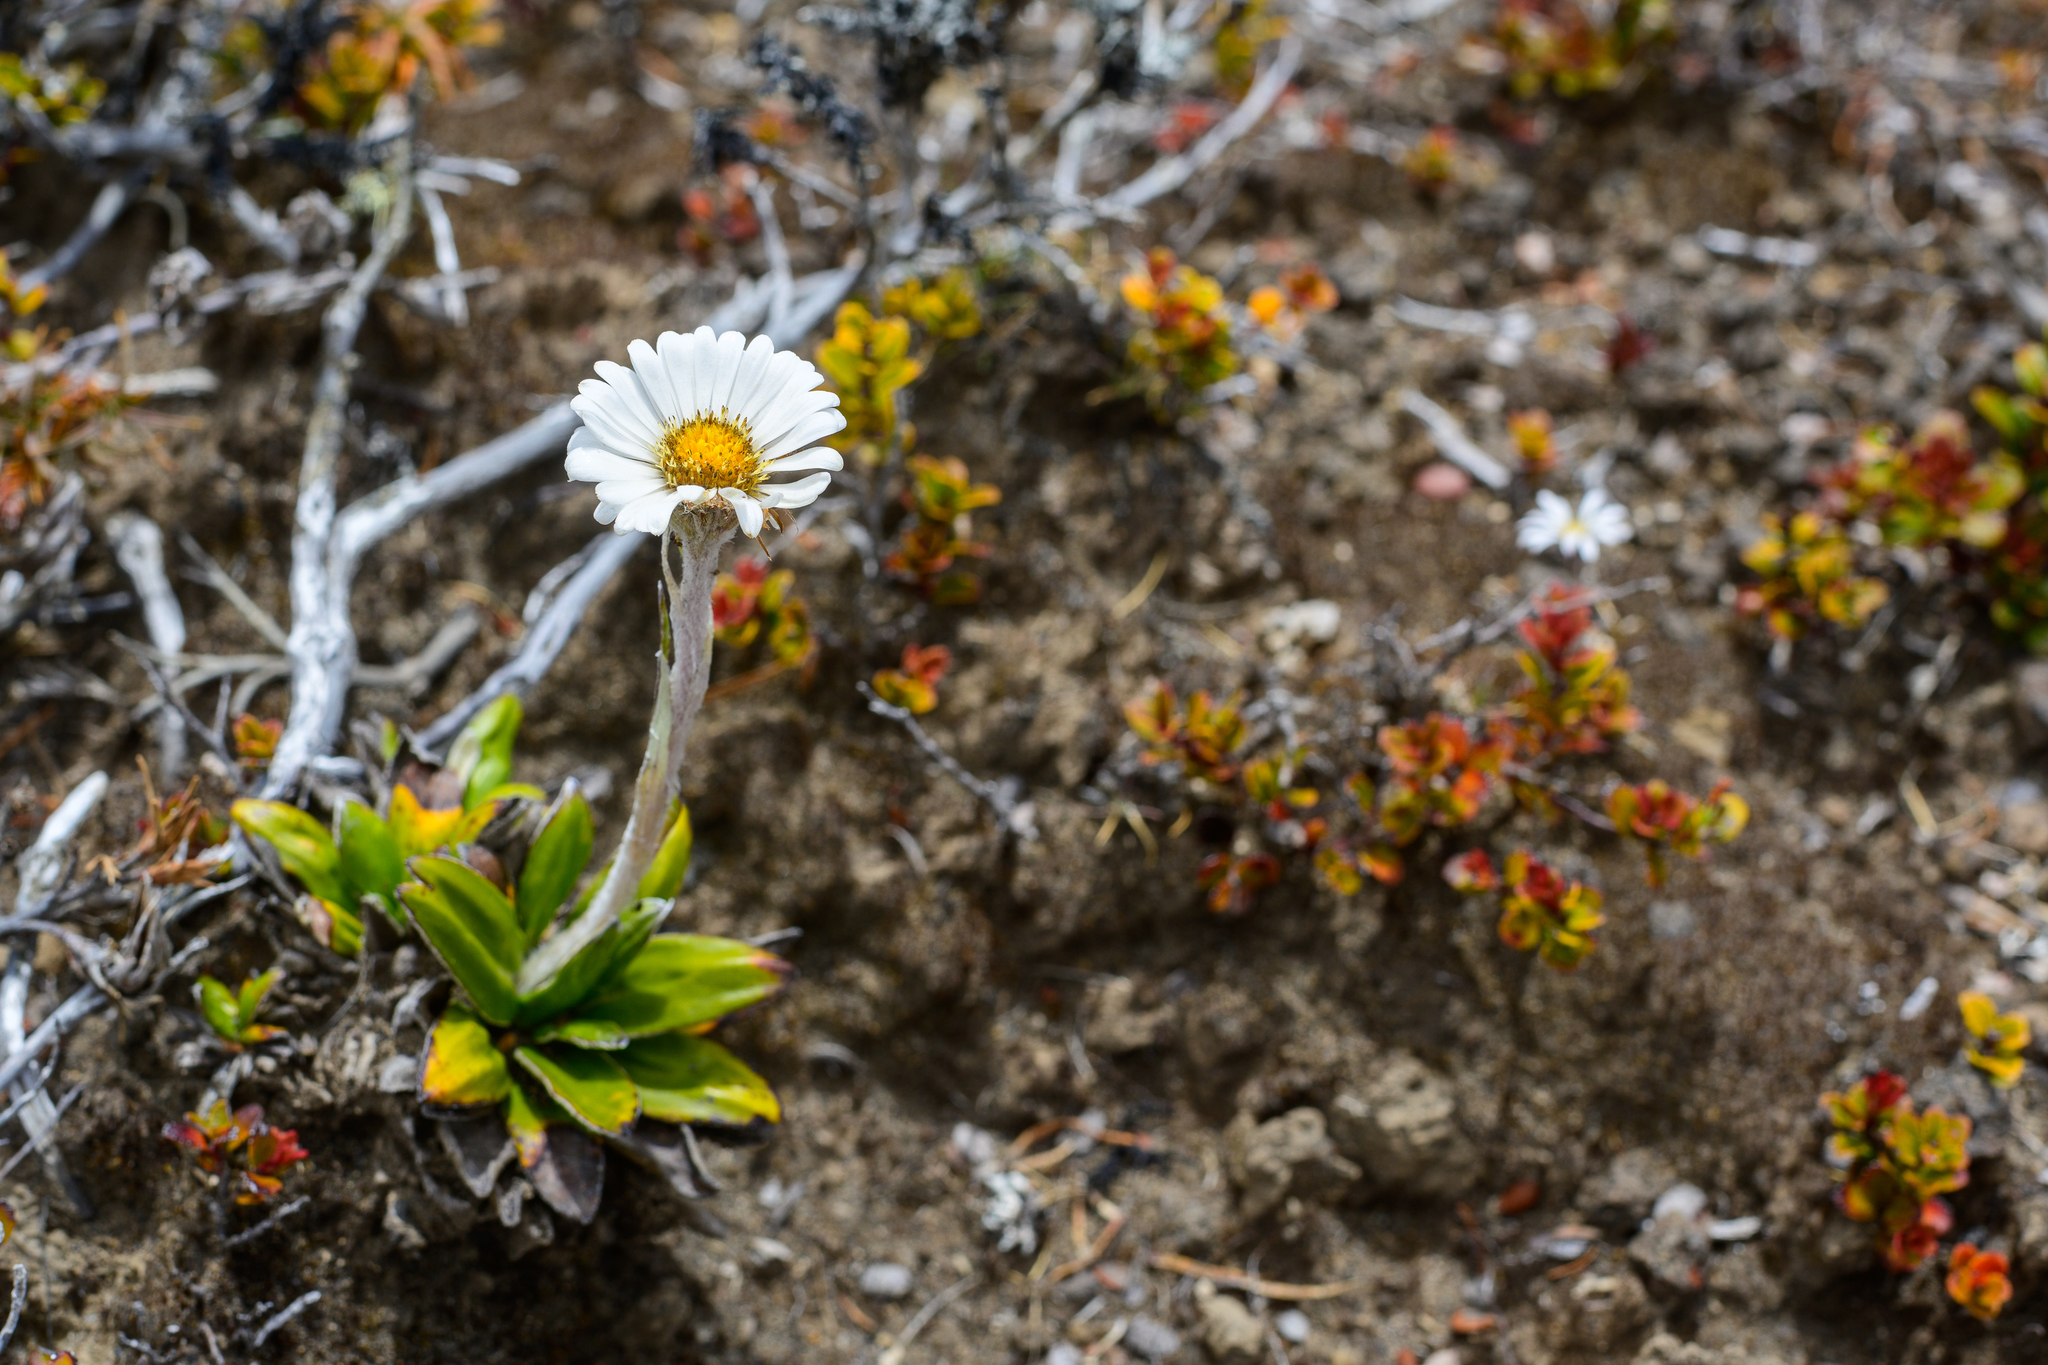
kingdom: Plantae
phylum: Tracheophyta
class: Magnoliopsida
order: Asterales
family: Asteraceae
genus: Celmisia
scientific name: Celmisia spectabilis
